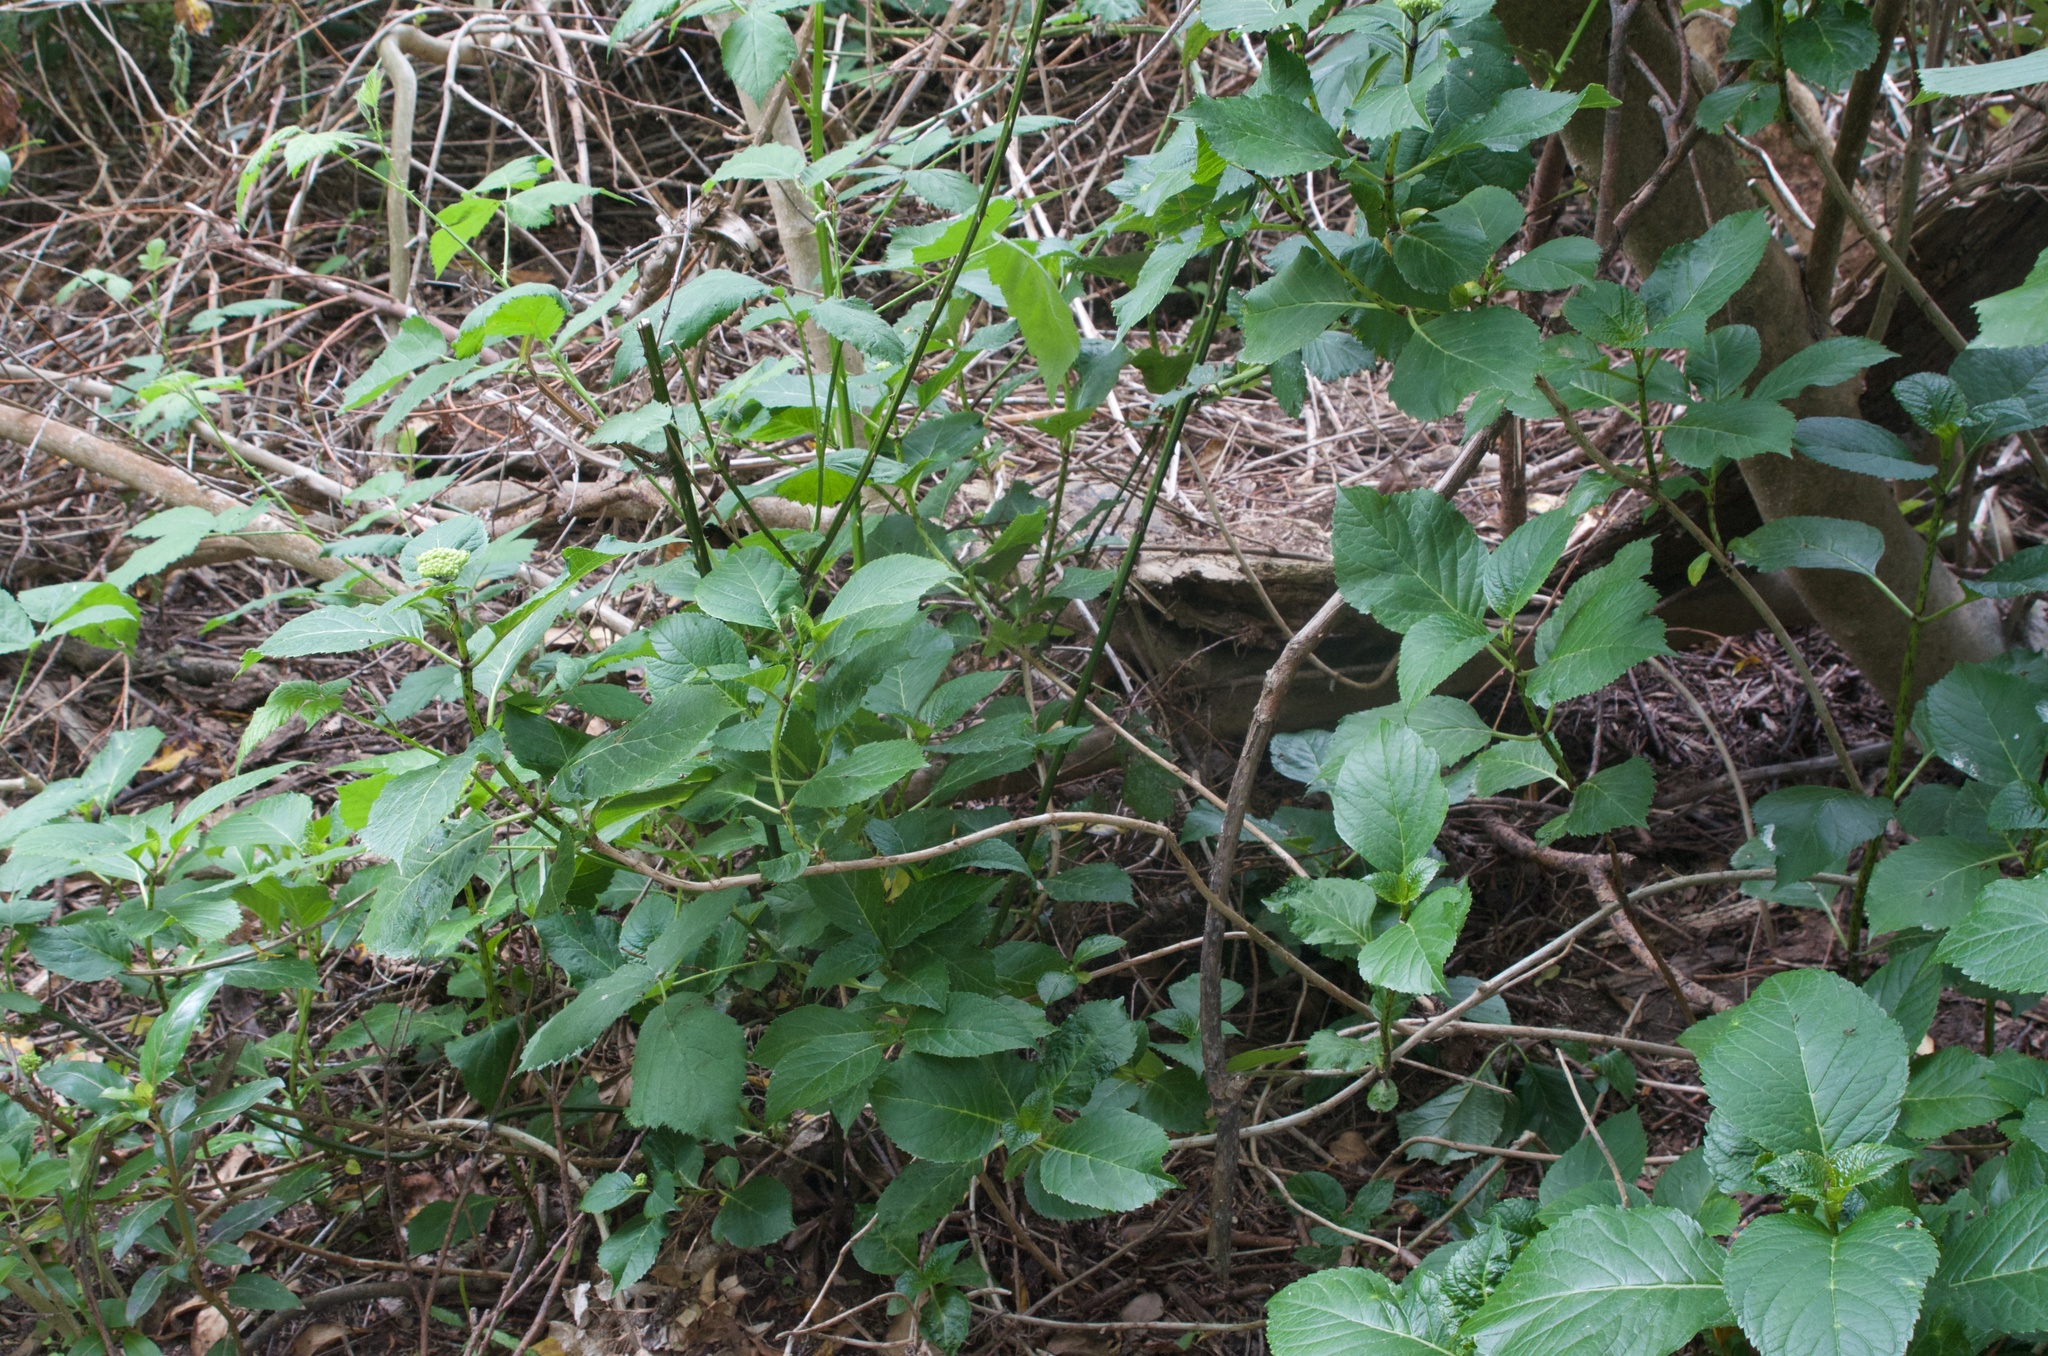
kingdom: Plantae
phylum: Tracheophyta
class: Magnoliopsida
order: Cornales
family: Hydrangeaceae
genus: Hydrangea
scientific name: Hydrangea macrophylla
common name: Hydrangea
